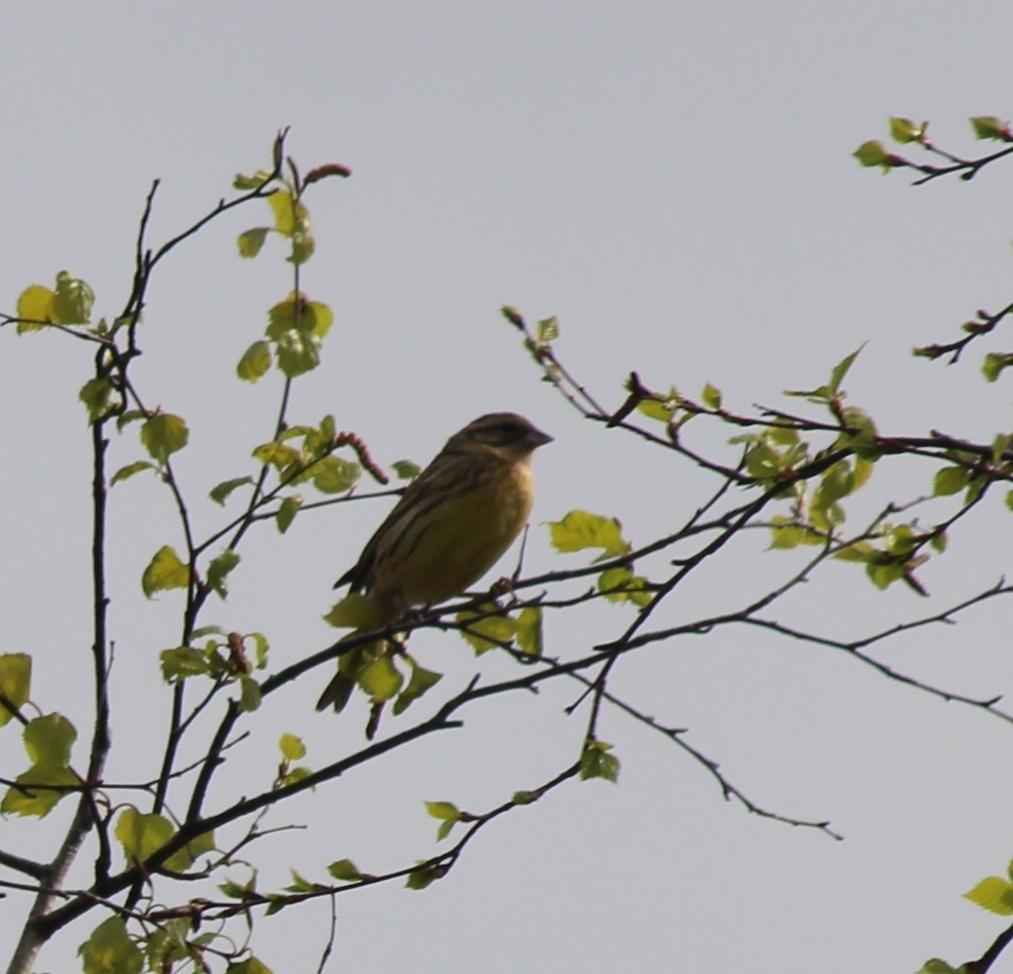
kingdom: Animalia
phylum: Chordata
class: Aves
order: Passeriformes
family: Emberizidae
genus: Emberiza
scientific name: Emberiza aureola
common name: Yellow-breasted bunting
